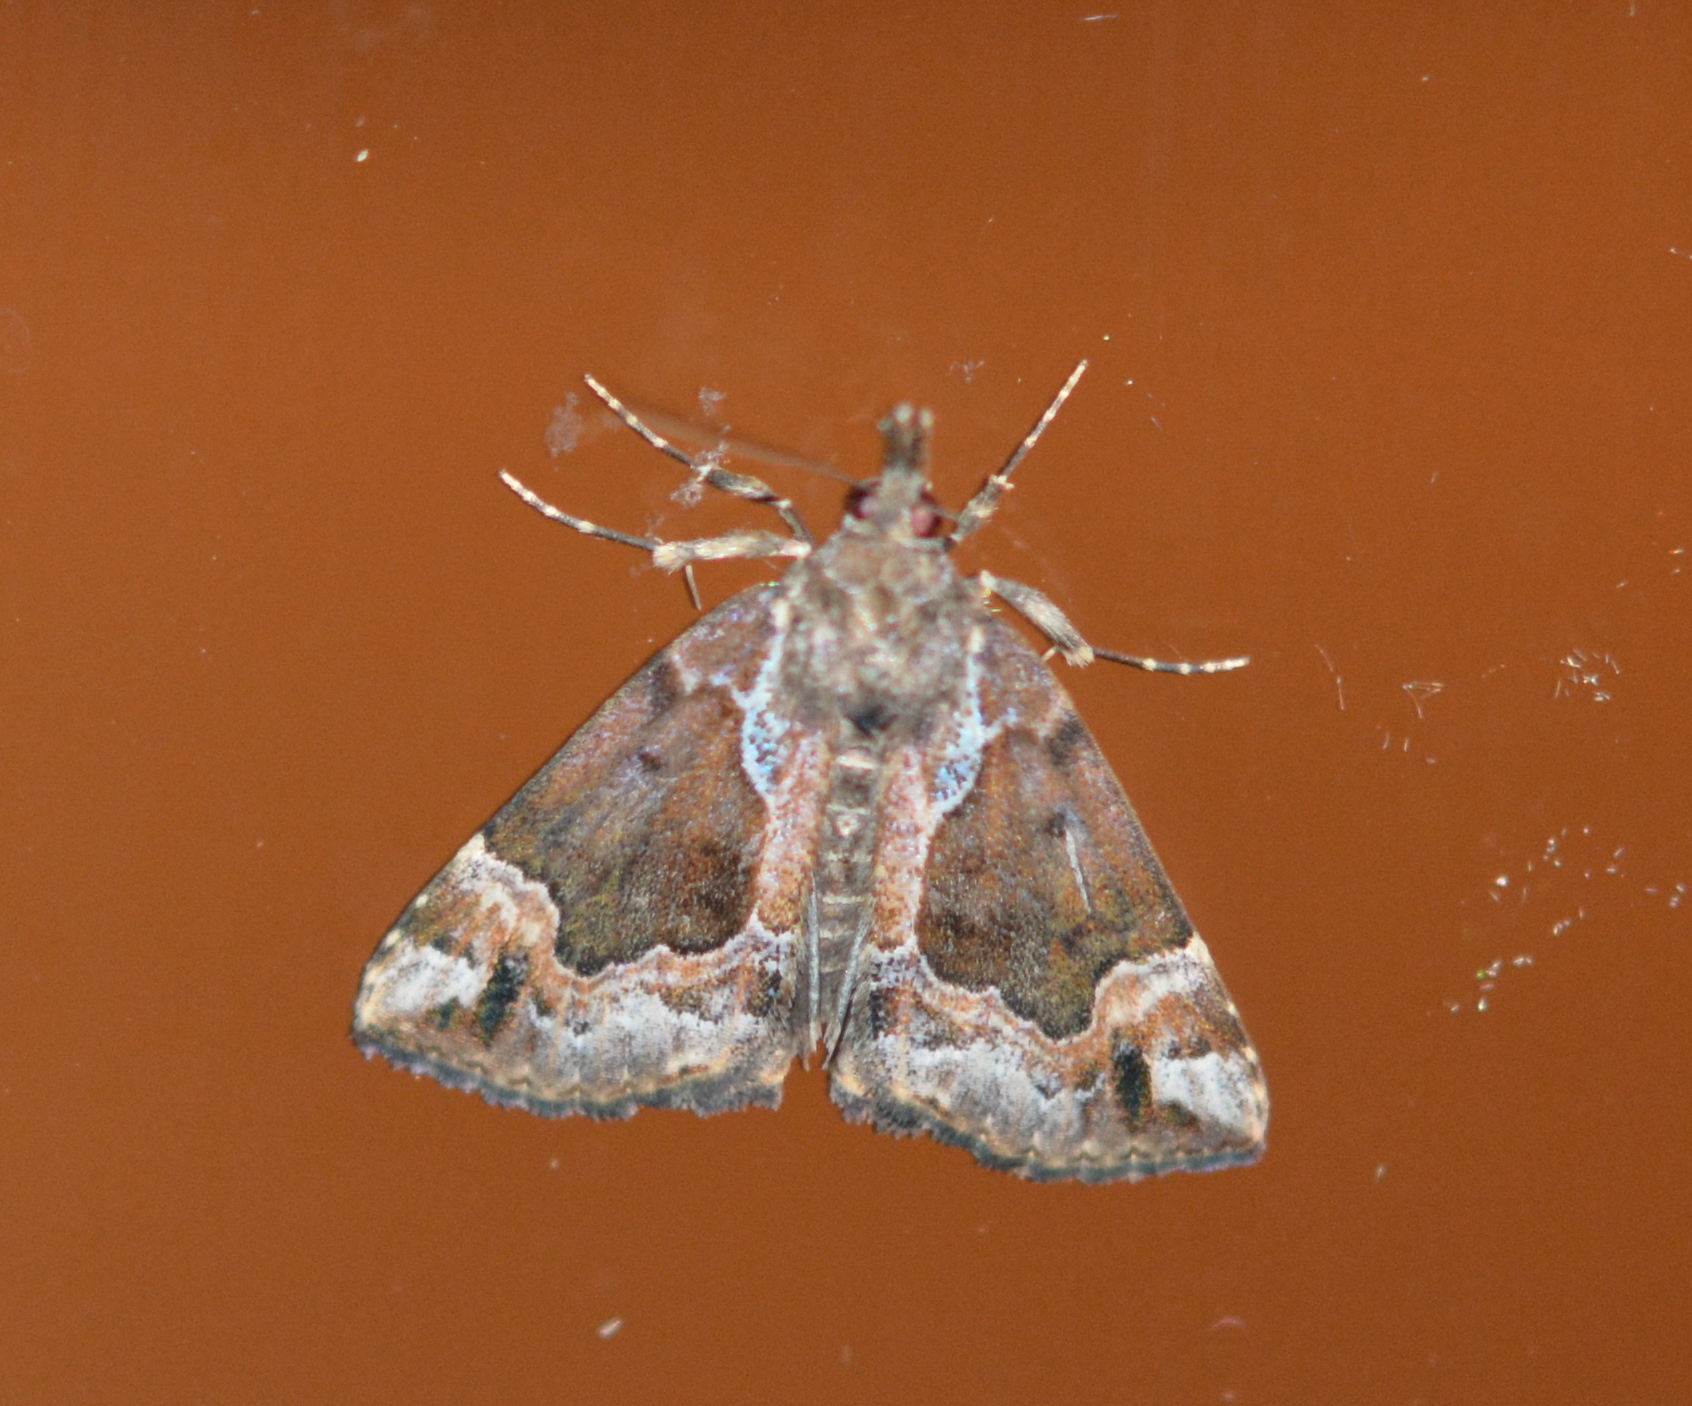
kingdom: Animalia
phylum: Arthropoda
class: Insecta
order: Lepidoptera
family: Erebidae
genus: Hypena
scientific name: Hypena palparia
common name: Mottled bomolocha moth
